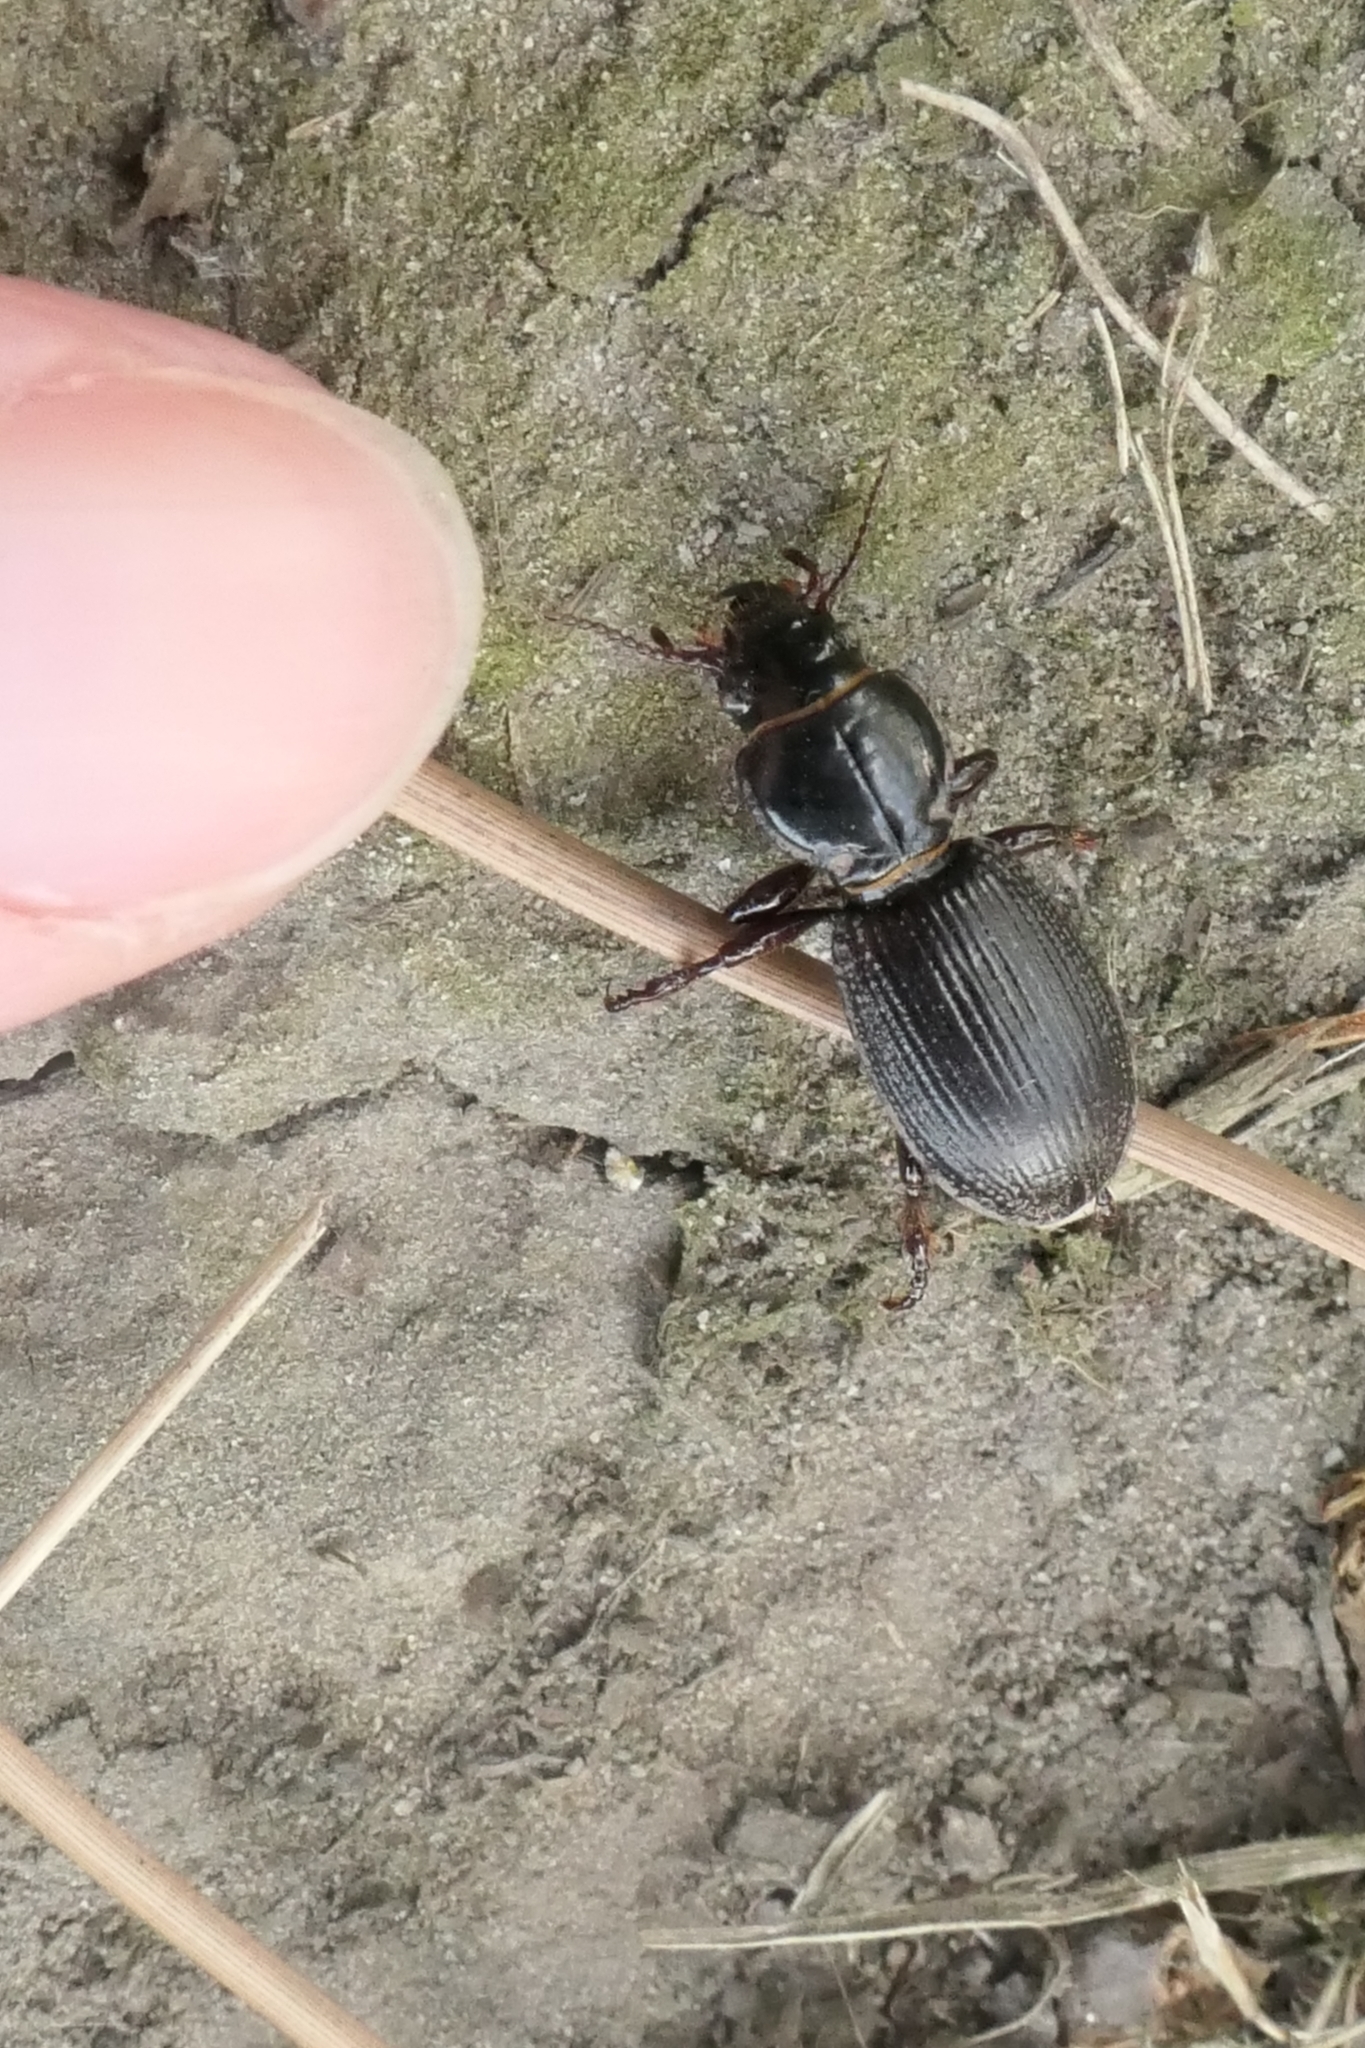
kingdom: Animalia
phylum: Arthropoda
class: Insecta
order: Coleoptera
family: Carabidae
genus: Mecodema
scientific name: Mecodema moniliferum
